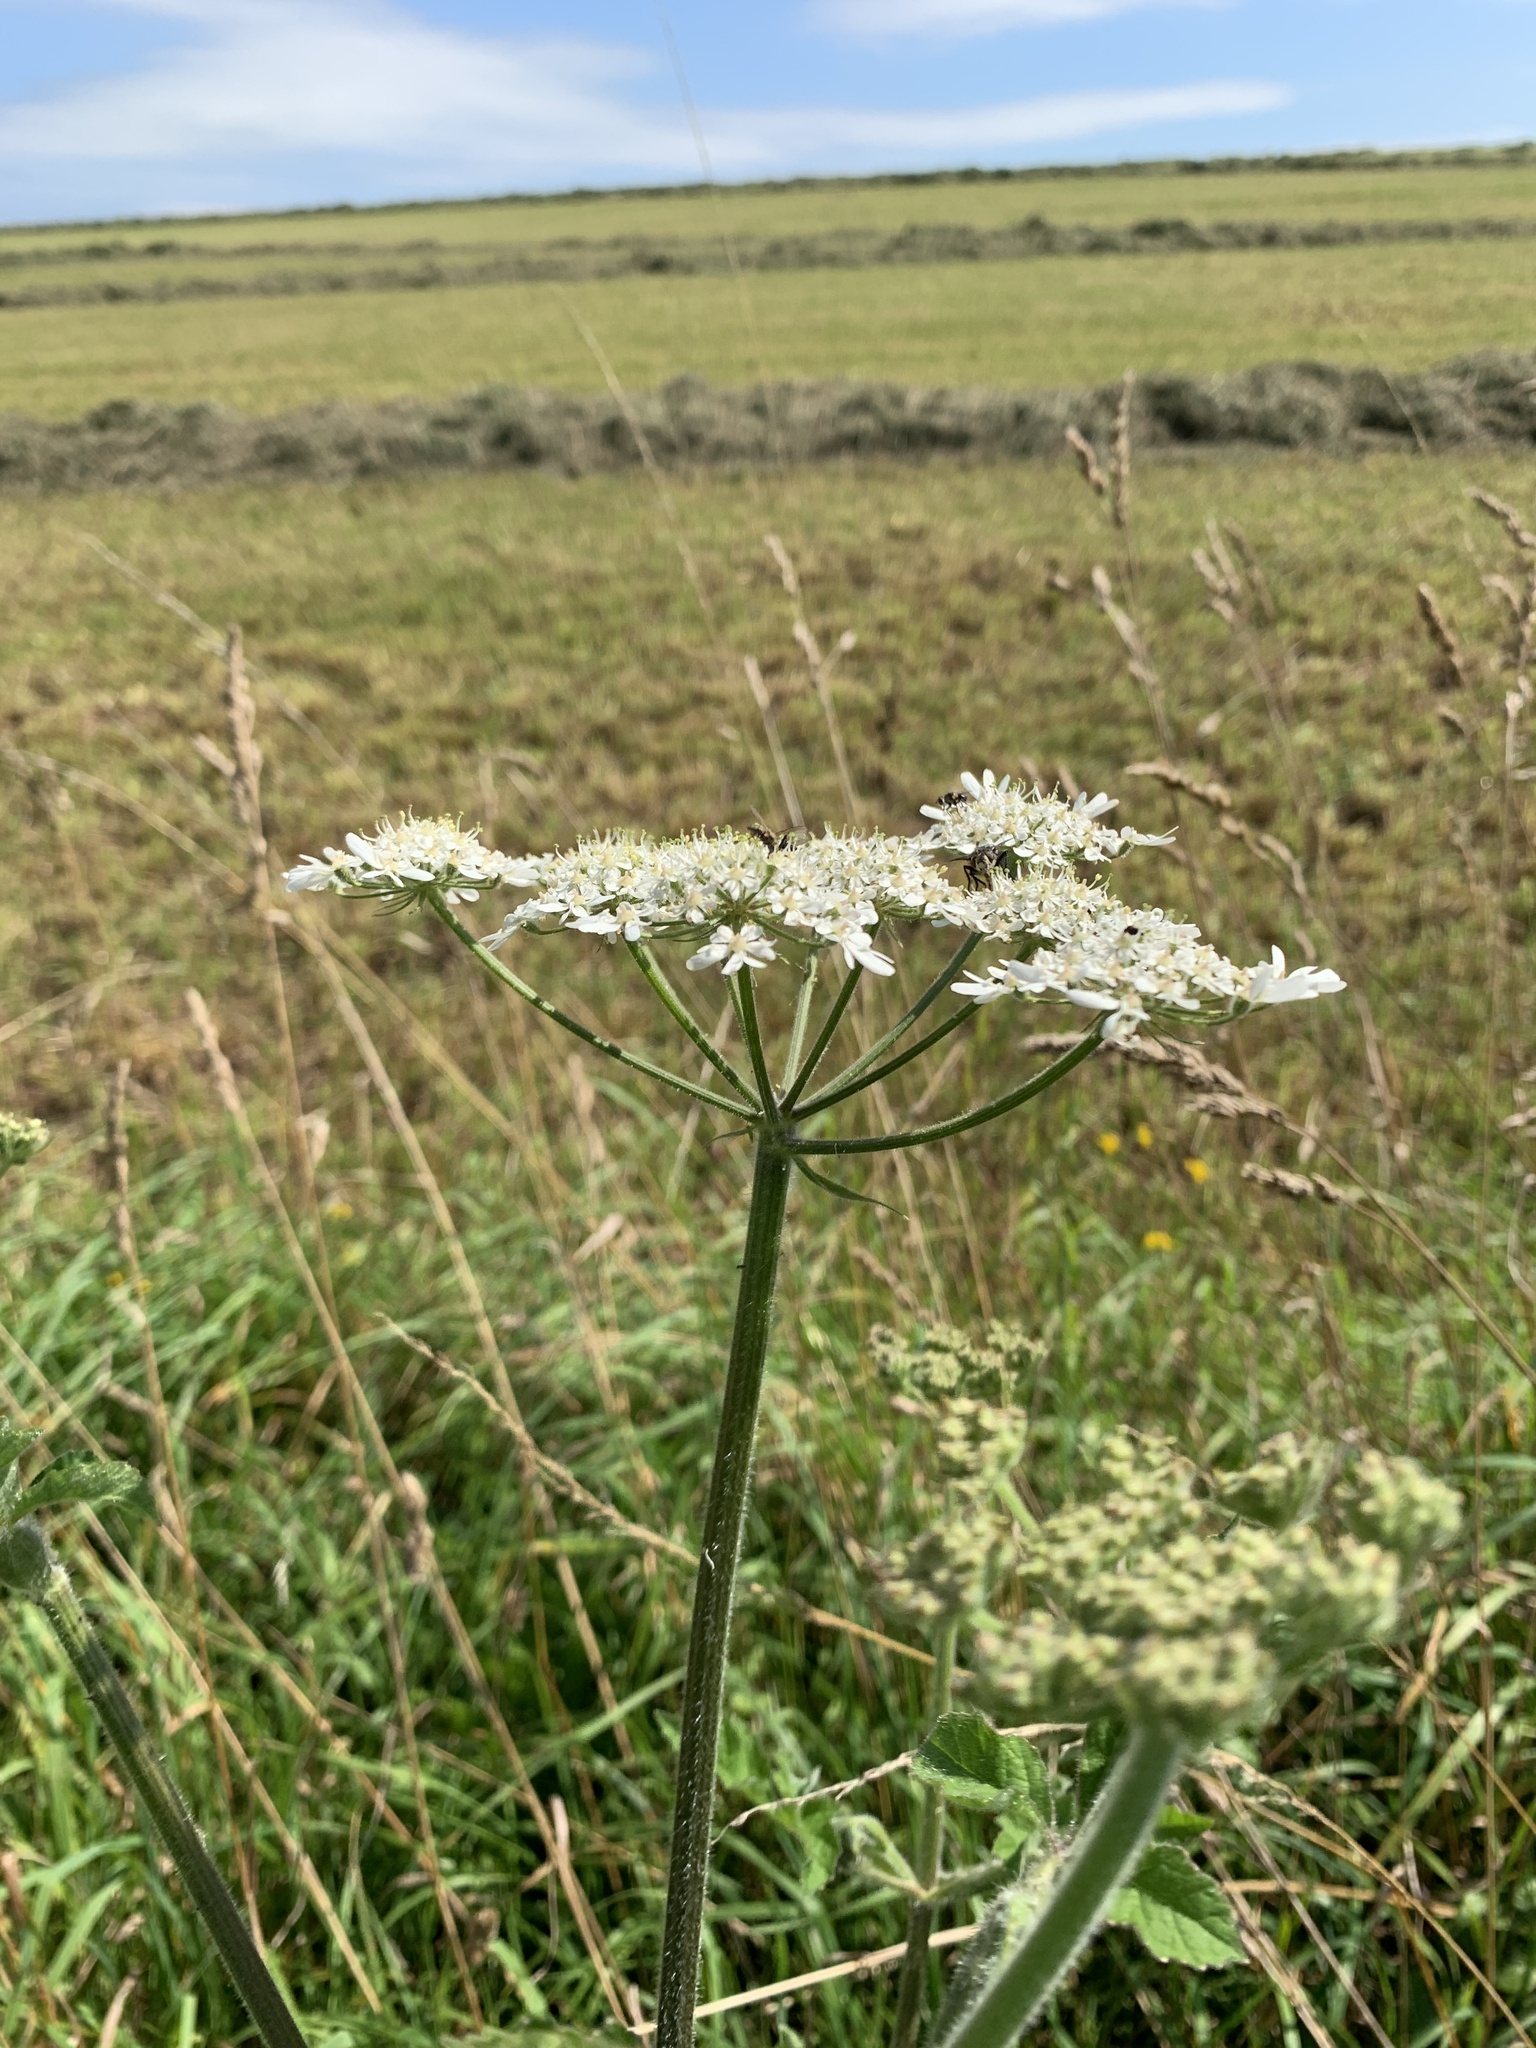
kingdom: Plantae
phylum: Tracheophyta
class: Magnoliopsida
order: Apiales
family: Apiaceae
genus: Heracleum
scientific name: Heracleum sphondylium
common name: Hogweed
